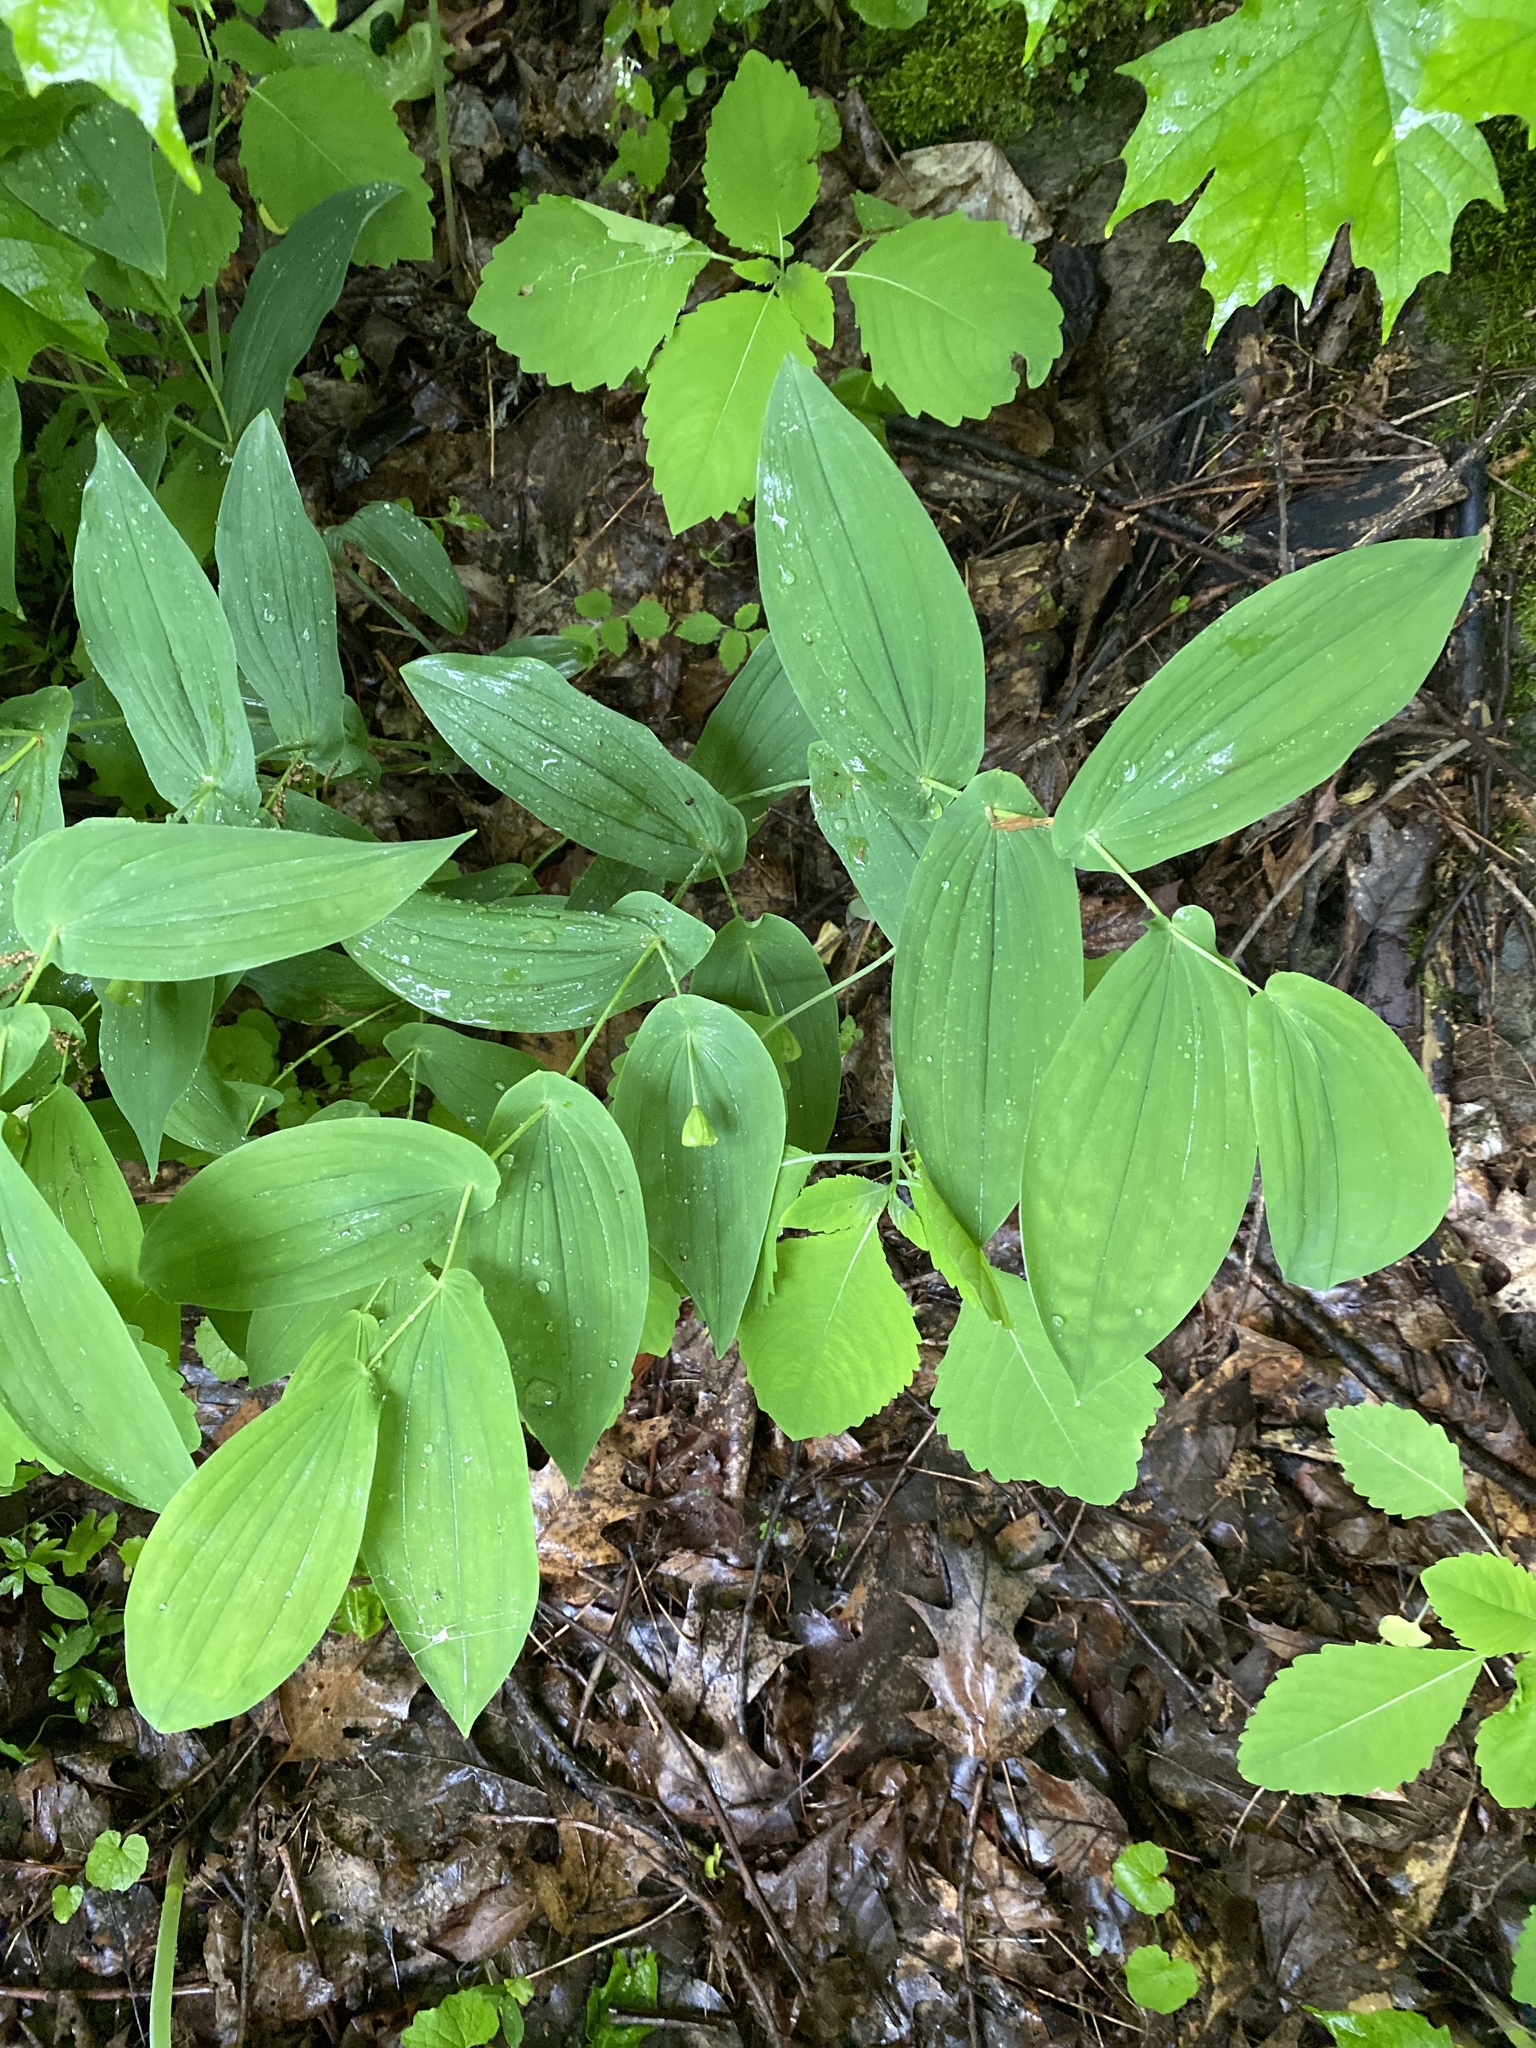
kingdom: Plantae
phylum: Tracheophyta
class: Liliopsida
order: Liliales
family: Colchicaceae
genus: Uvularia
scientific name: Uvularia grandiflora
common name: Bellwort
